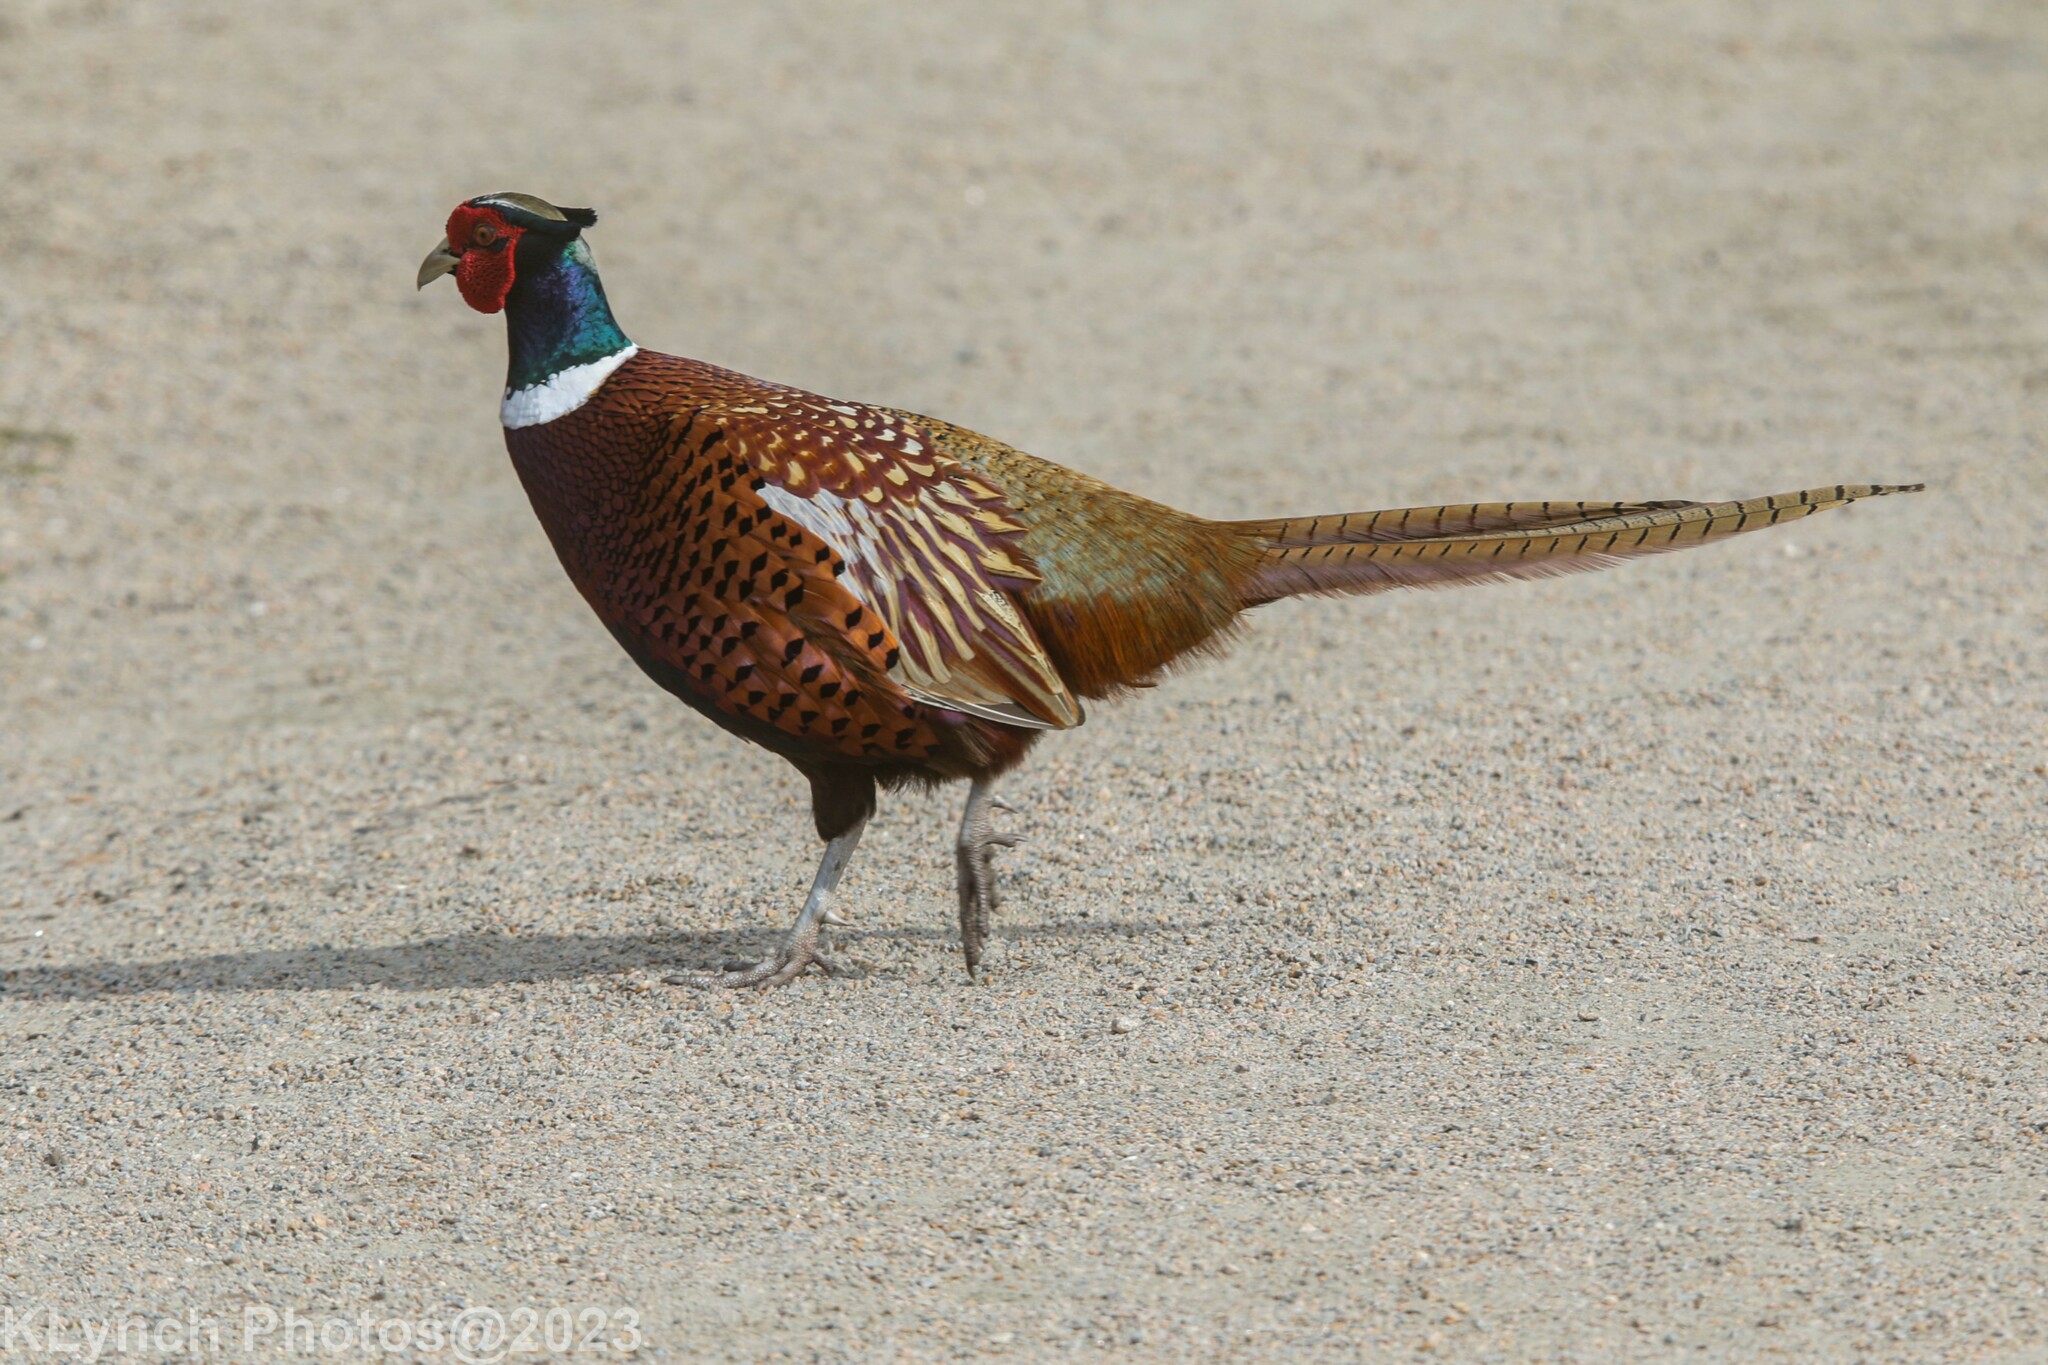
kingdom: Animalia
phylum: Chordata
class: Aves
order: Galliformes
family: Phasianidae
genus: Phasianus
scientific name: Phasianus colchicus
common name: Common pheasant
